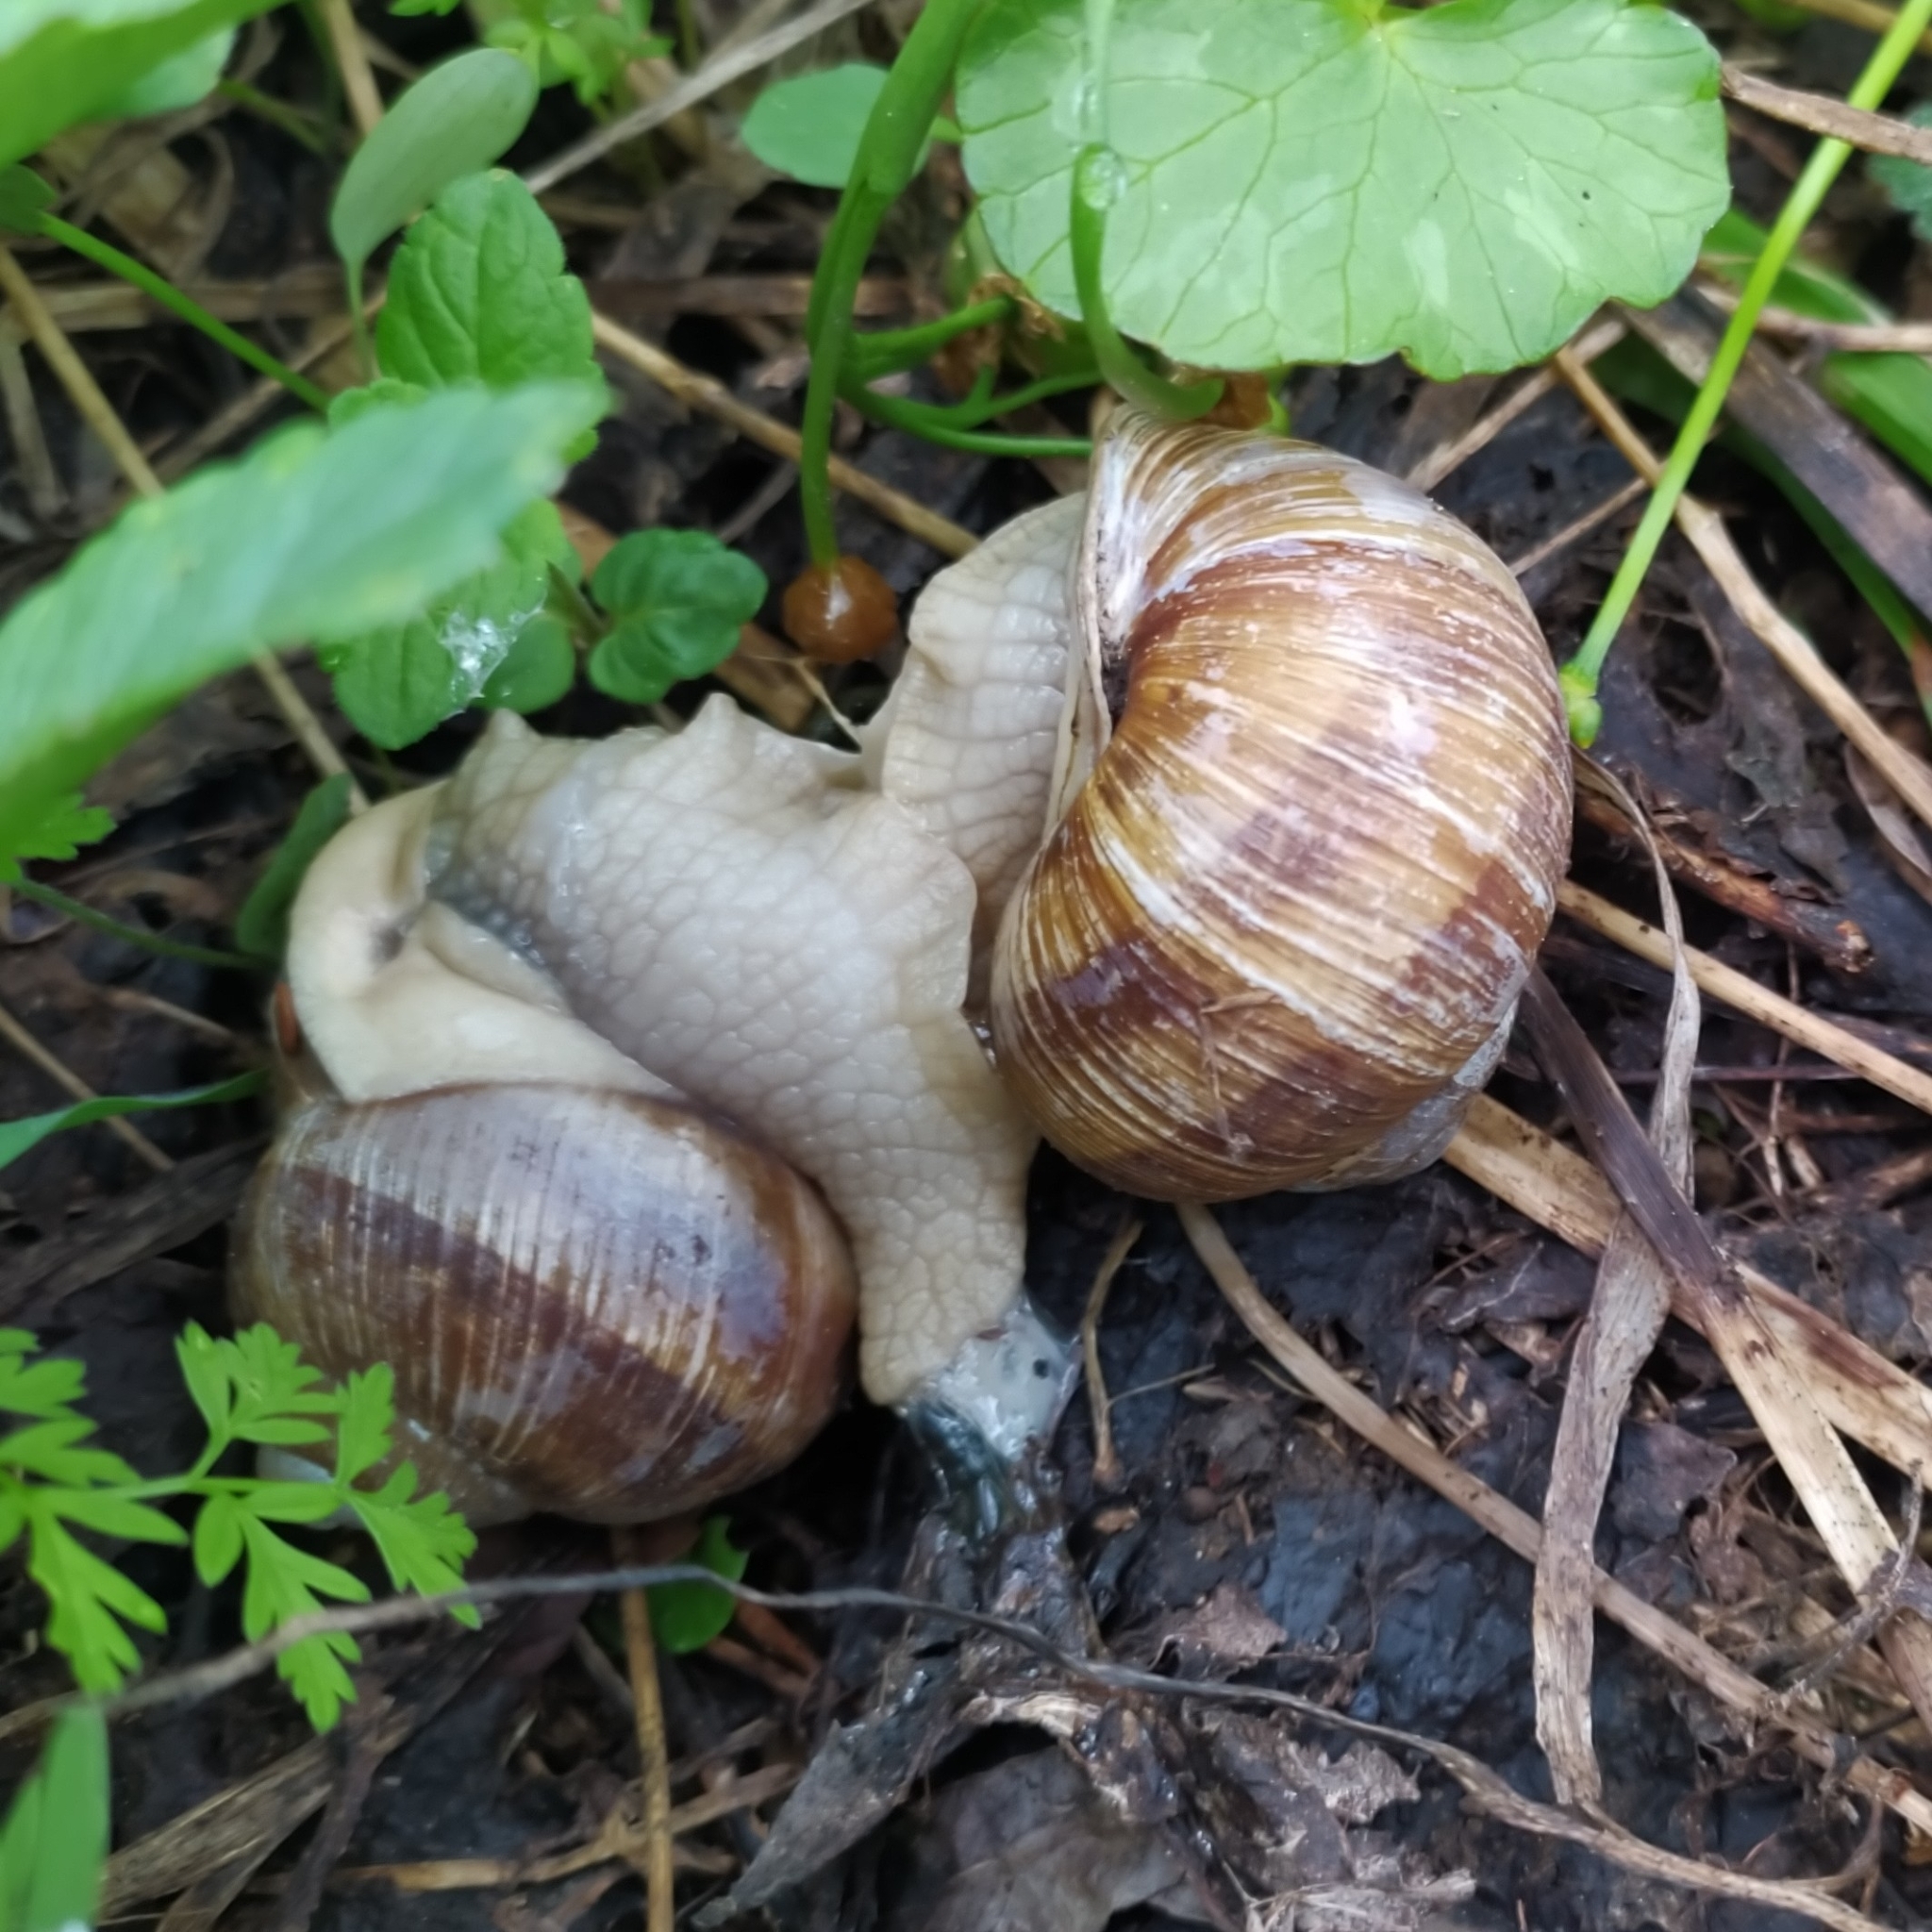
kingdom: Animalia
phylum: Mollusca
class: Gastropoda
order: Stylommatophora
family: Helicidae
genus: Helix
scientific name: Helix pomatia
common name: Roman snail
